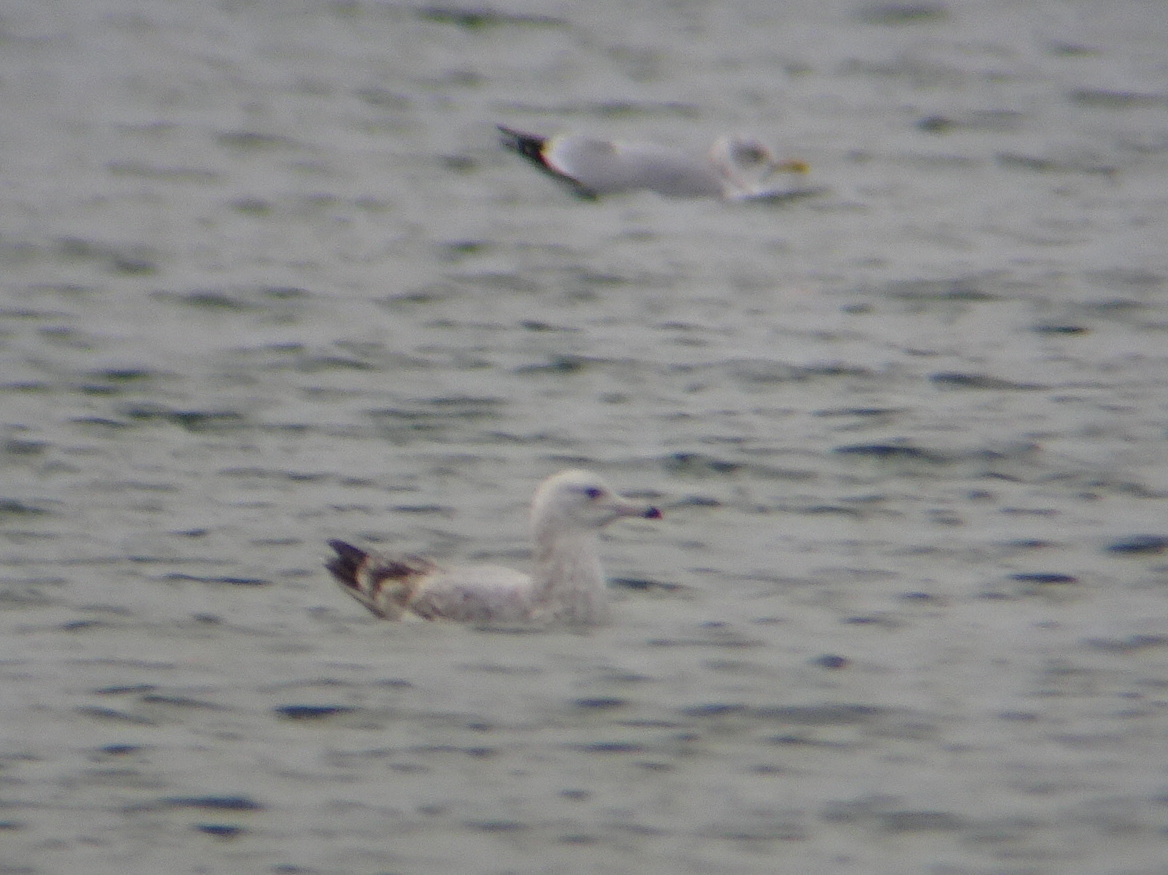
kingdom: Animalia
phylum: Chordata
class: Aves
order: Charadriiformes
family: Laridae
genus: Larus
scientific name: Larus argentatus
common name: Herring gull
